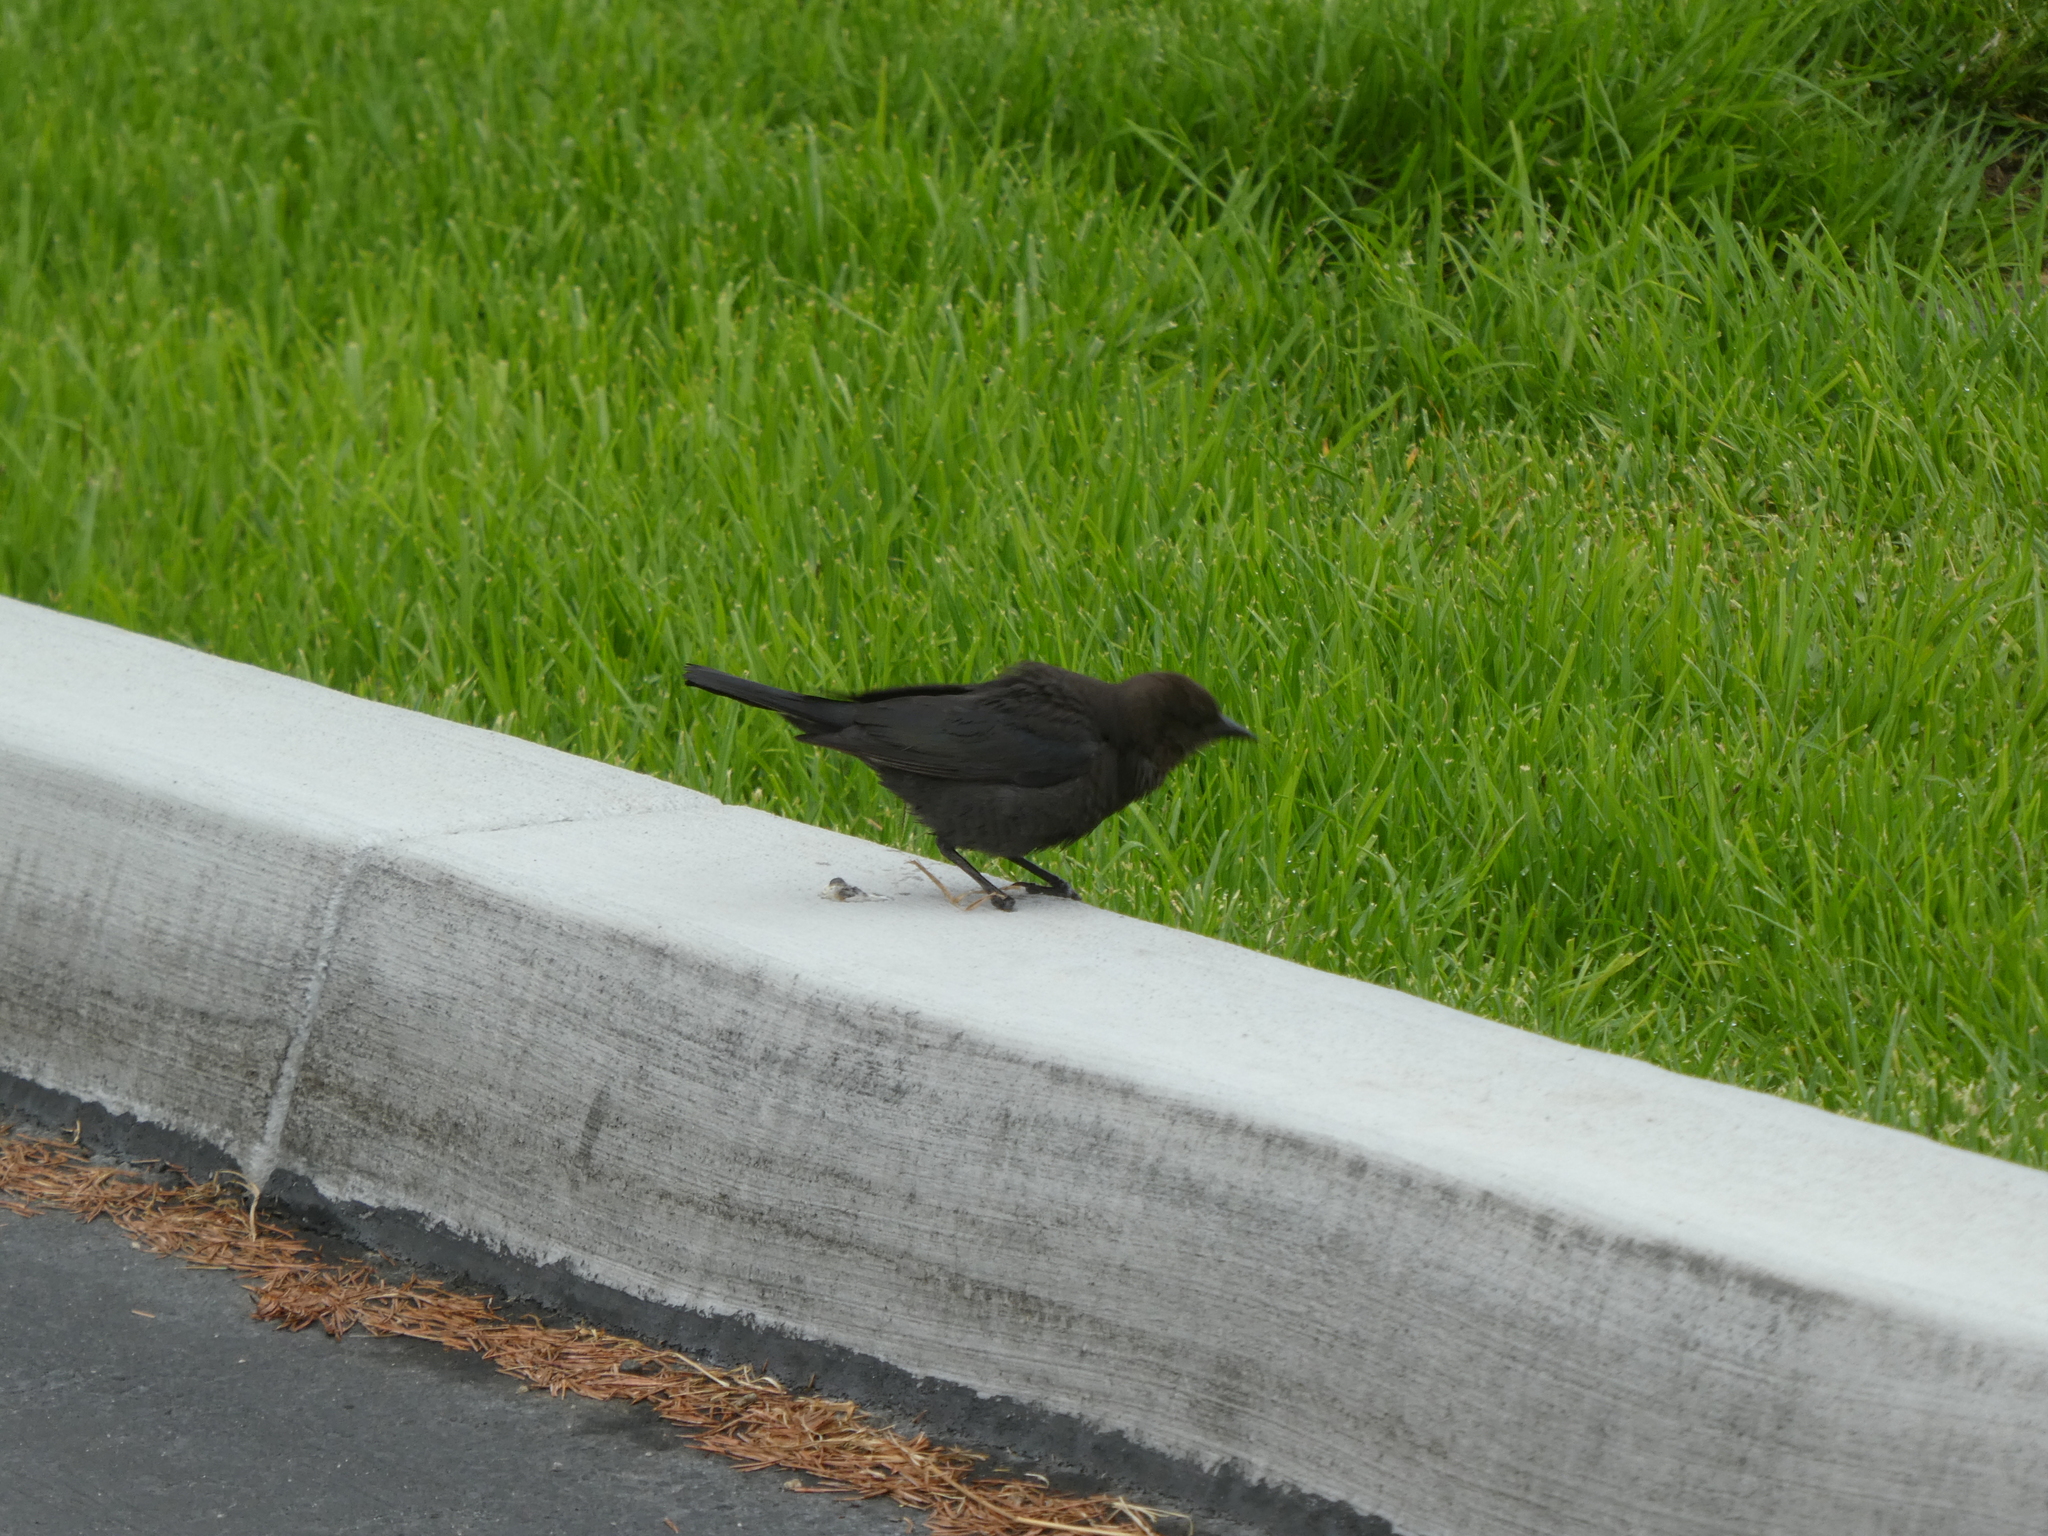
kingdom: Animalia
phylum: Chordata
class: Aves
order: Passeriformes
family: Icteridae
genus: Euphagus
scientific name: Euphagus cyanocephalus
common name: Brewer's blackbird
